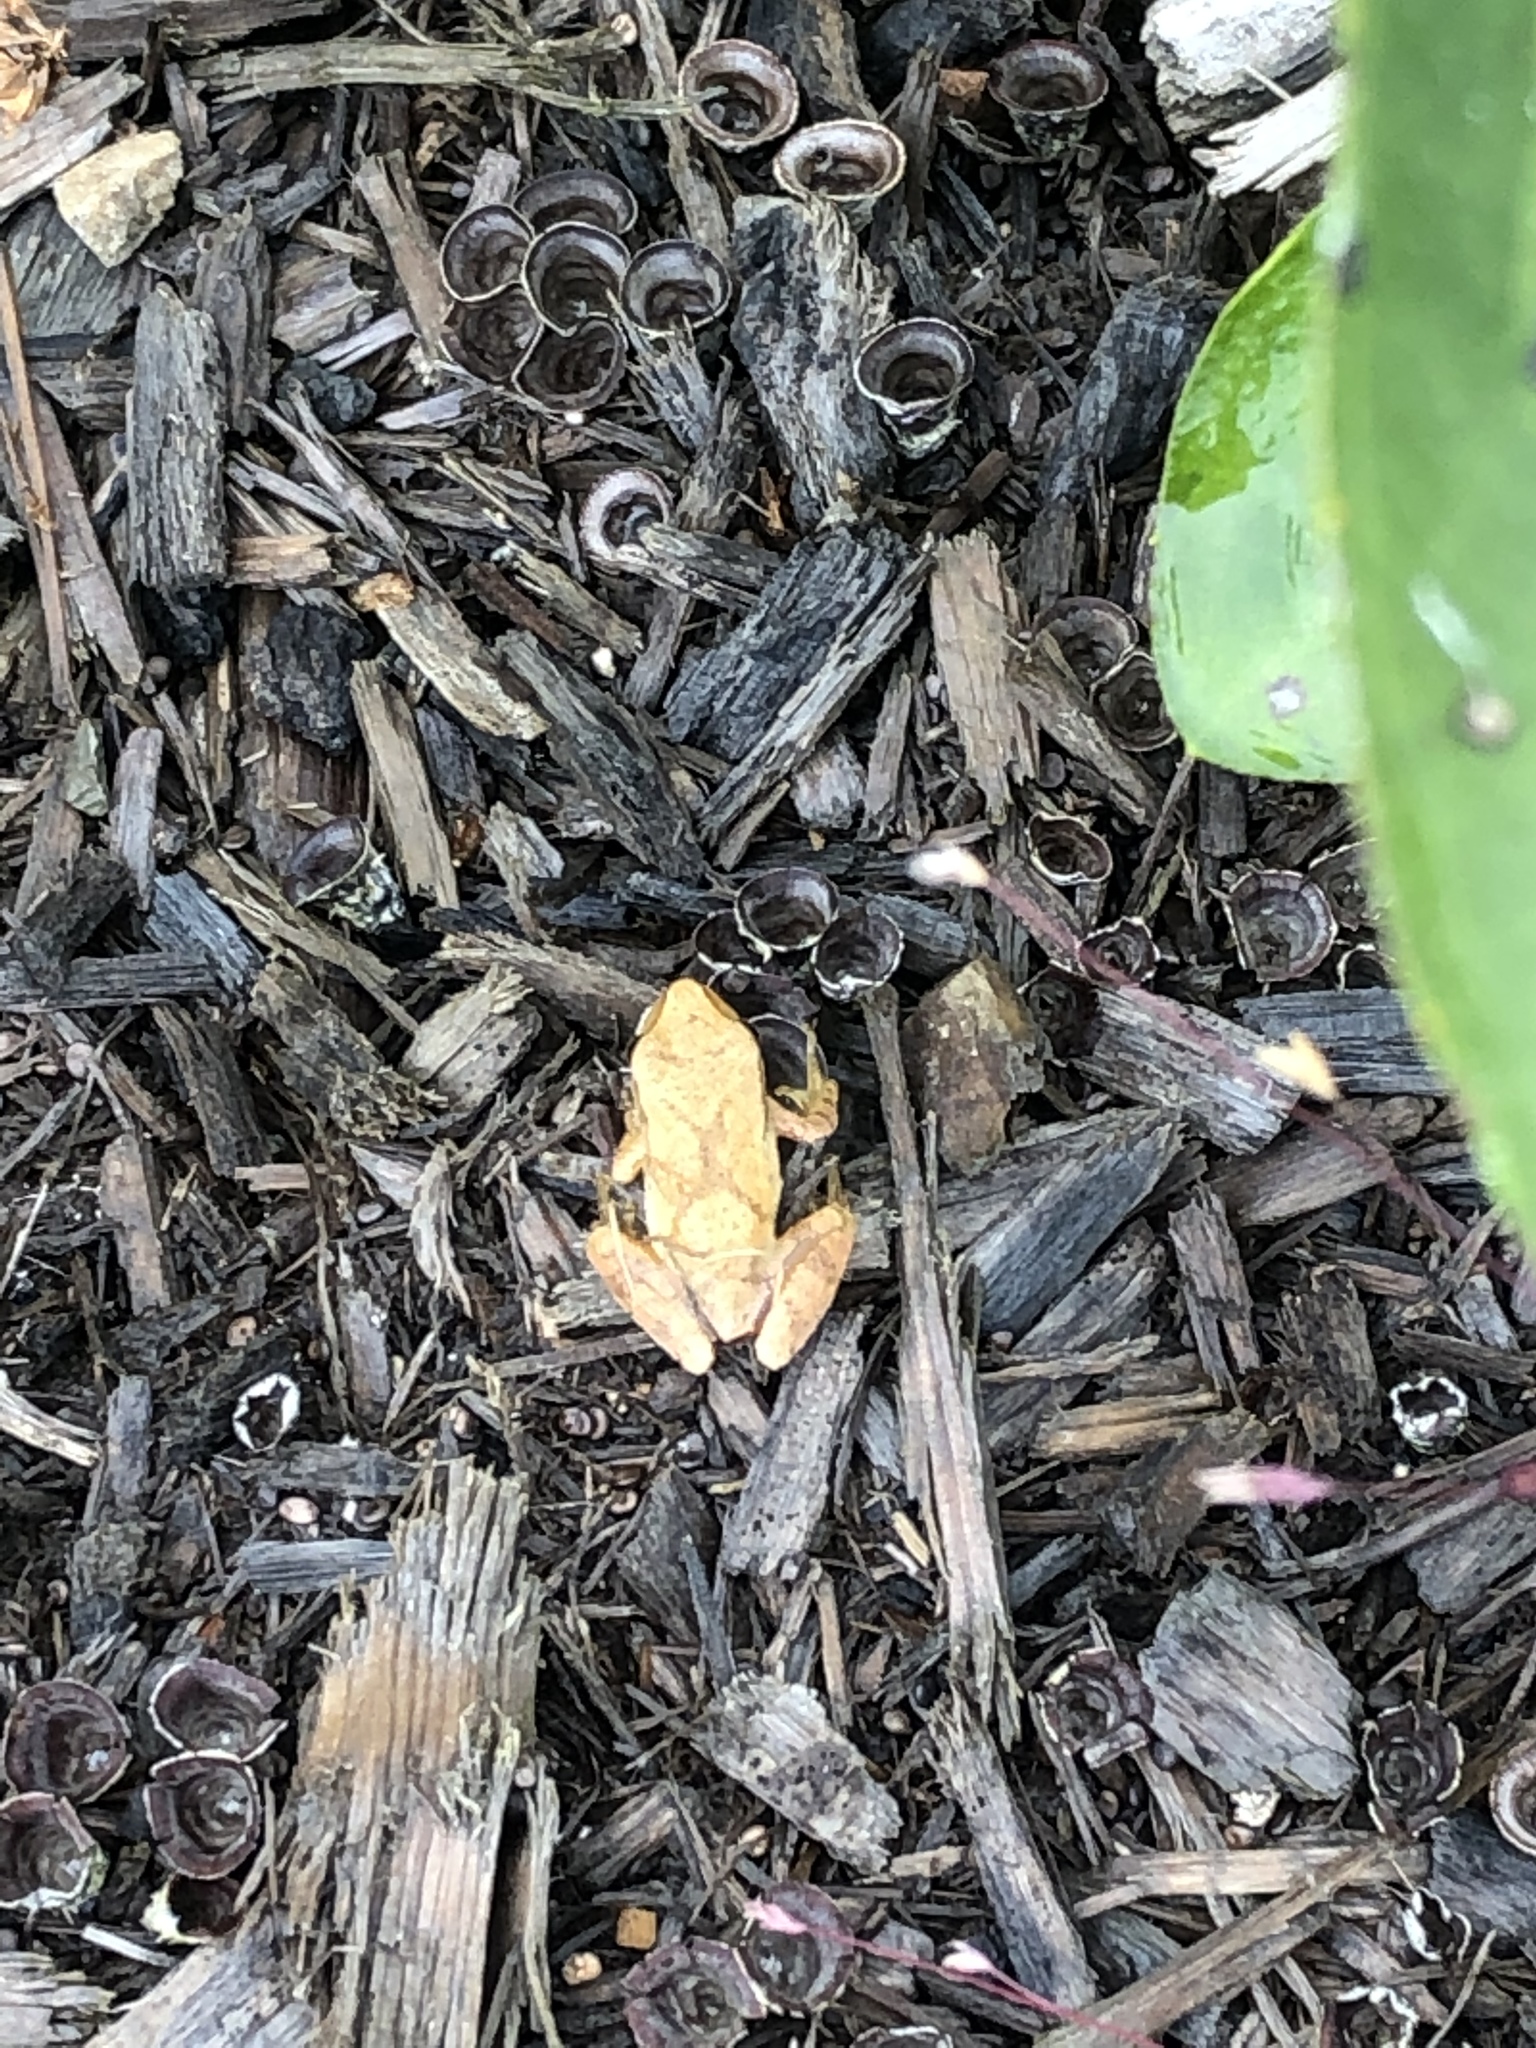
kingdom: Animalia
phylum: Chordata
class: Amphibia
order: Anura
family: Hylidae
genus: Pseudacris
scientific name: Pseudacris crucifer
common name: Spring peeper
